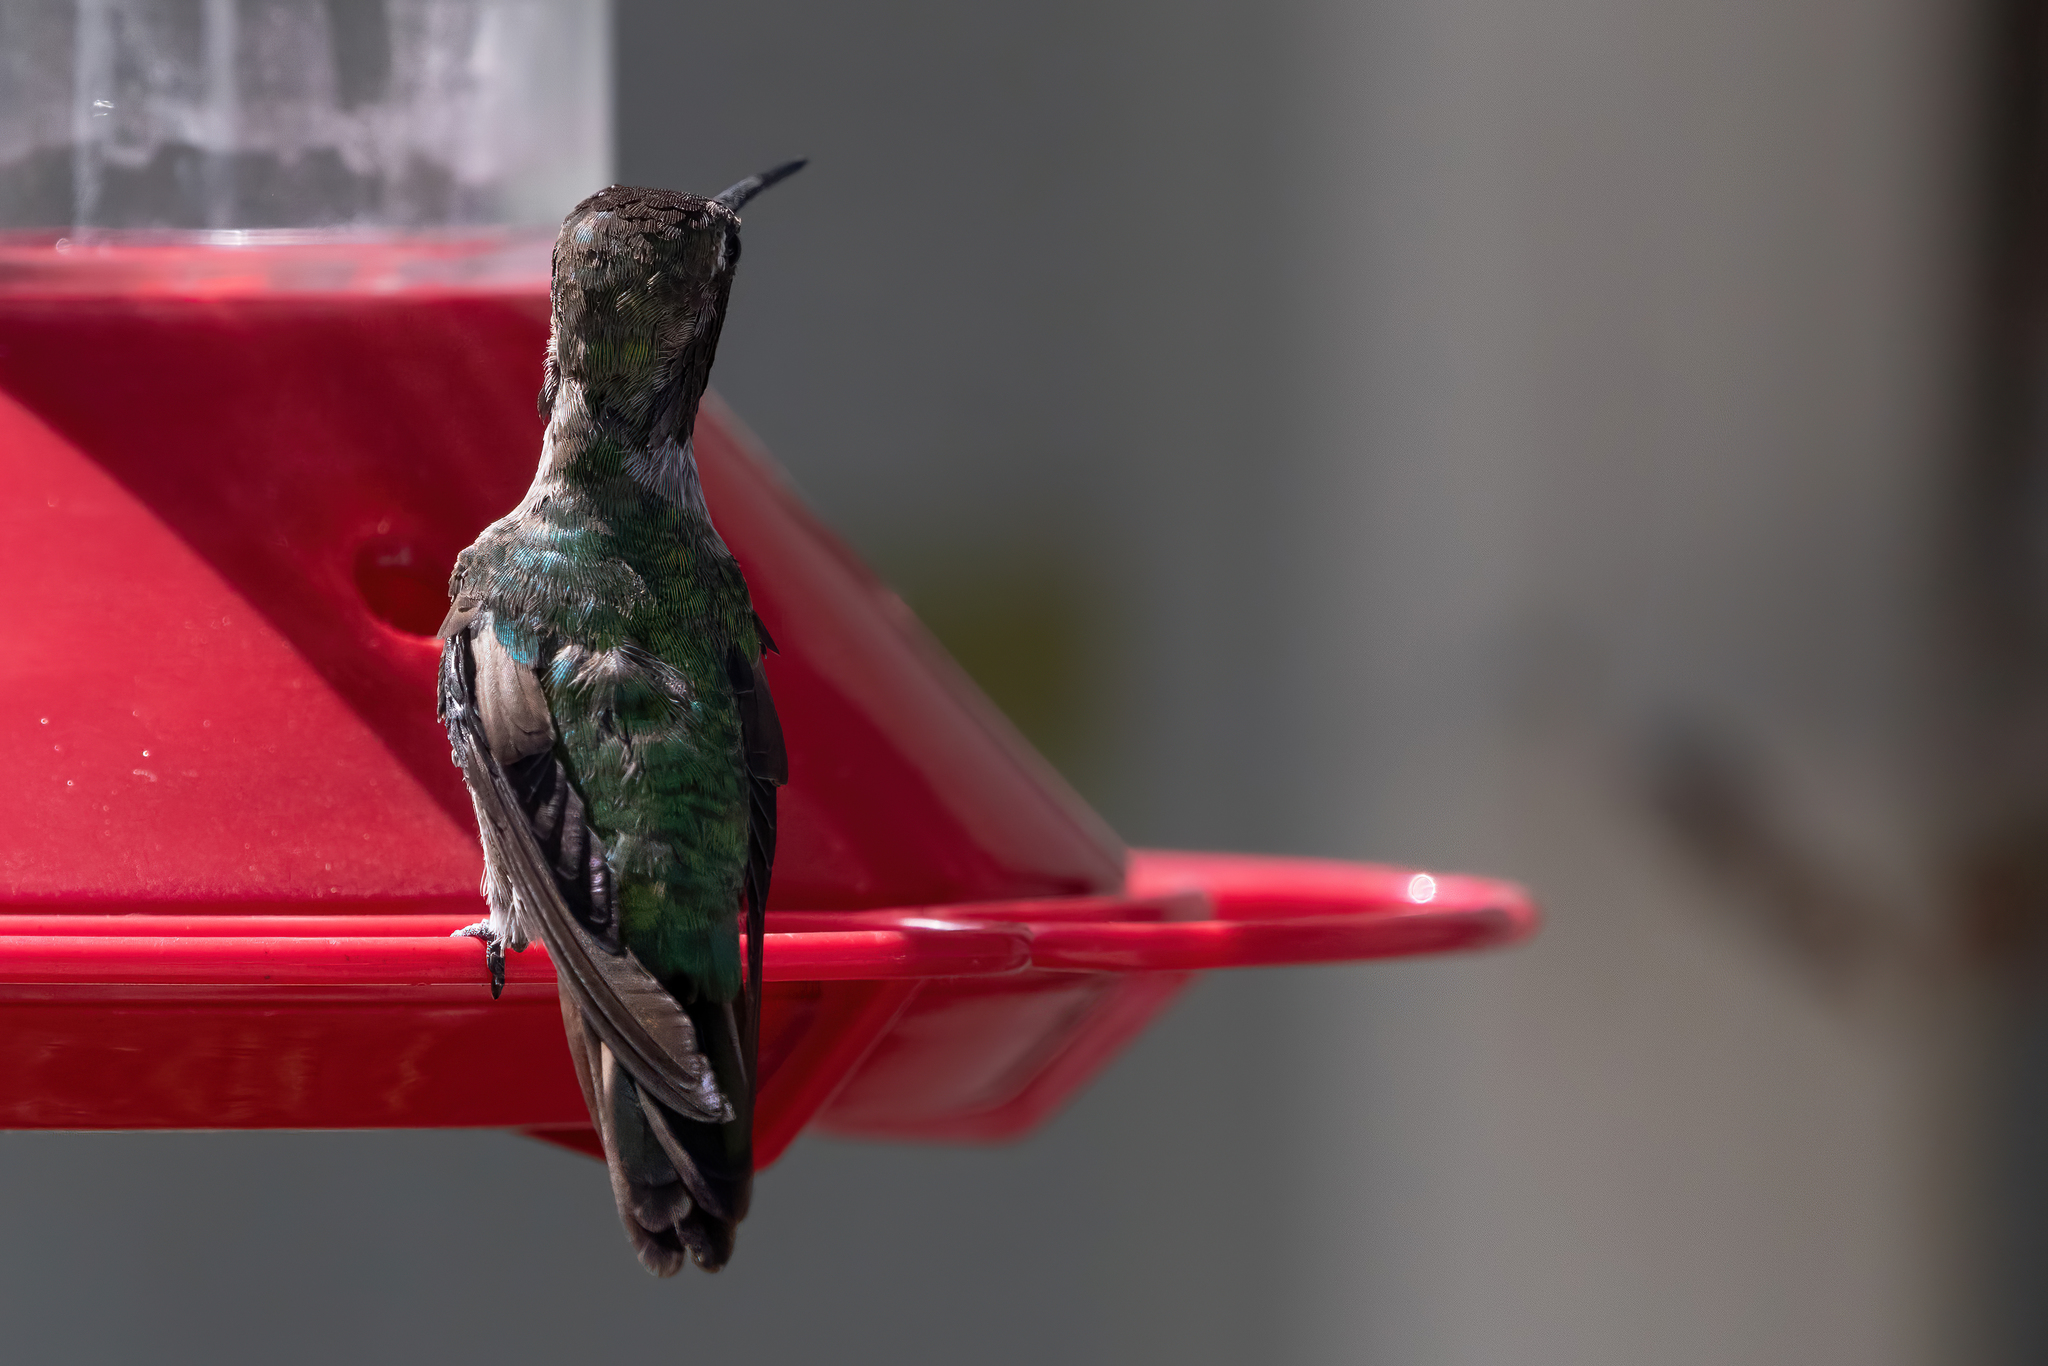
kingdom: Animalia
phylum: Chordata
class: Aves
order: Apodiformes
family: Trochilidae
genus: Calypte
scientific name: Calypte anna
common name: Anna's hummingbird
